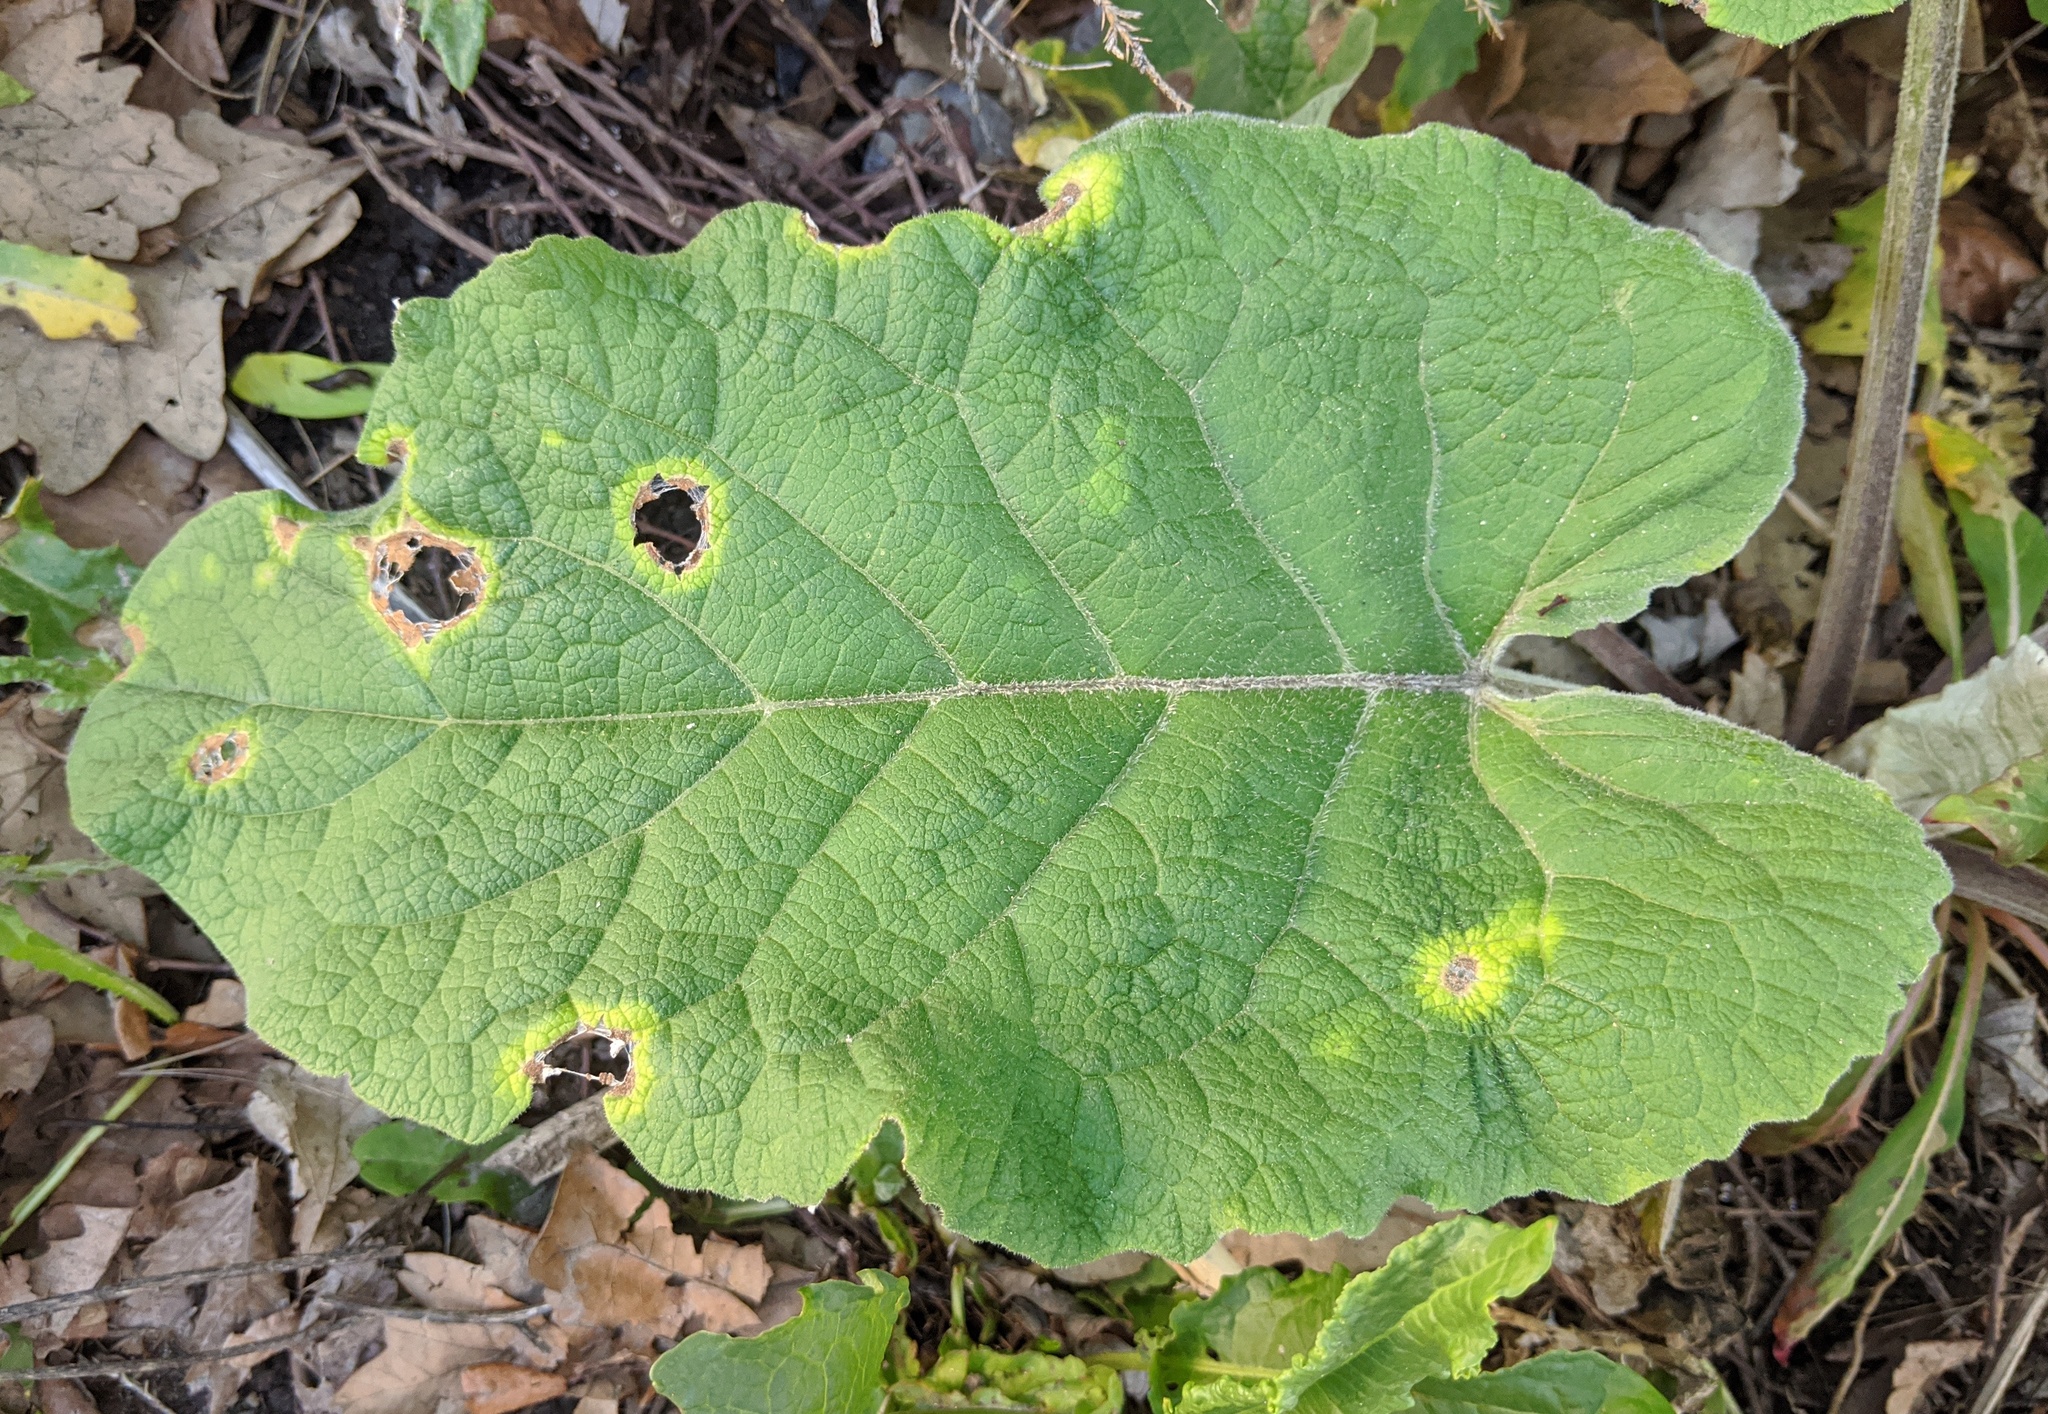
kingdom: Plantae
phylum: Tracheophyta
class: Magnoliopsida
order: Asterales
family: Asteraceae
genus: Arctium
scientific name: Arctium minus
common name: Lesser burdock
